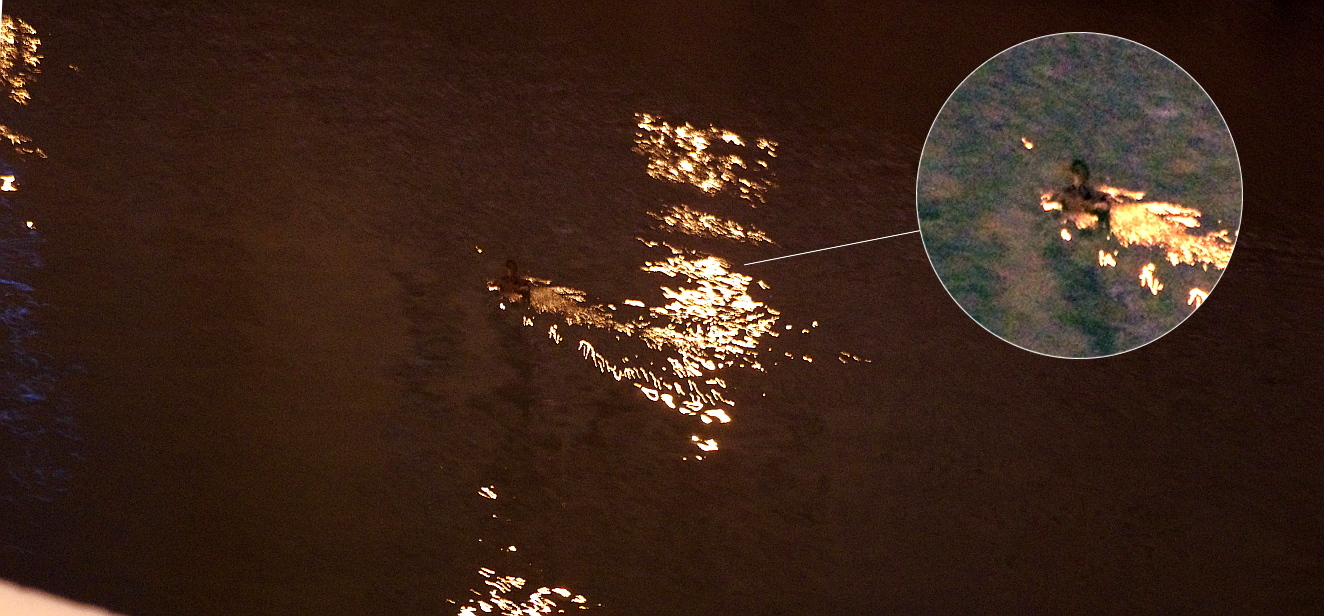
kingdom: Animalia
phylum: Chordata
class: Aves
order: Anseriformes
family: Anatidae
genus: Anas
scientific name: Anas platyrhynchos
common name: Mallard
